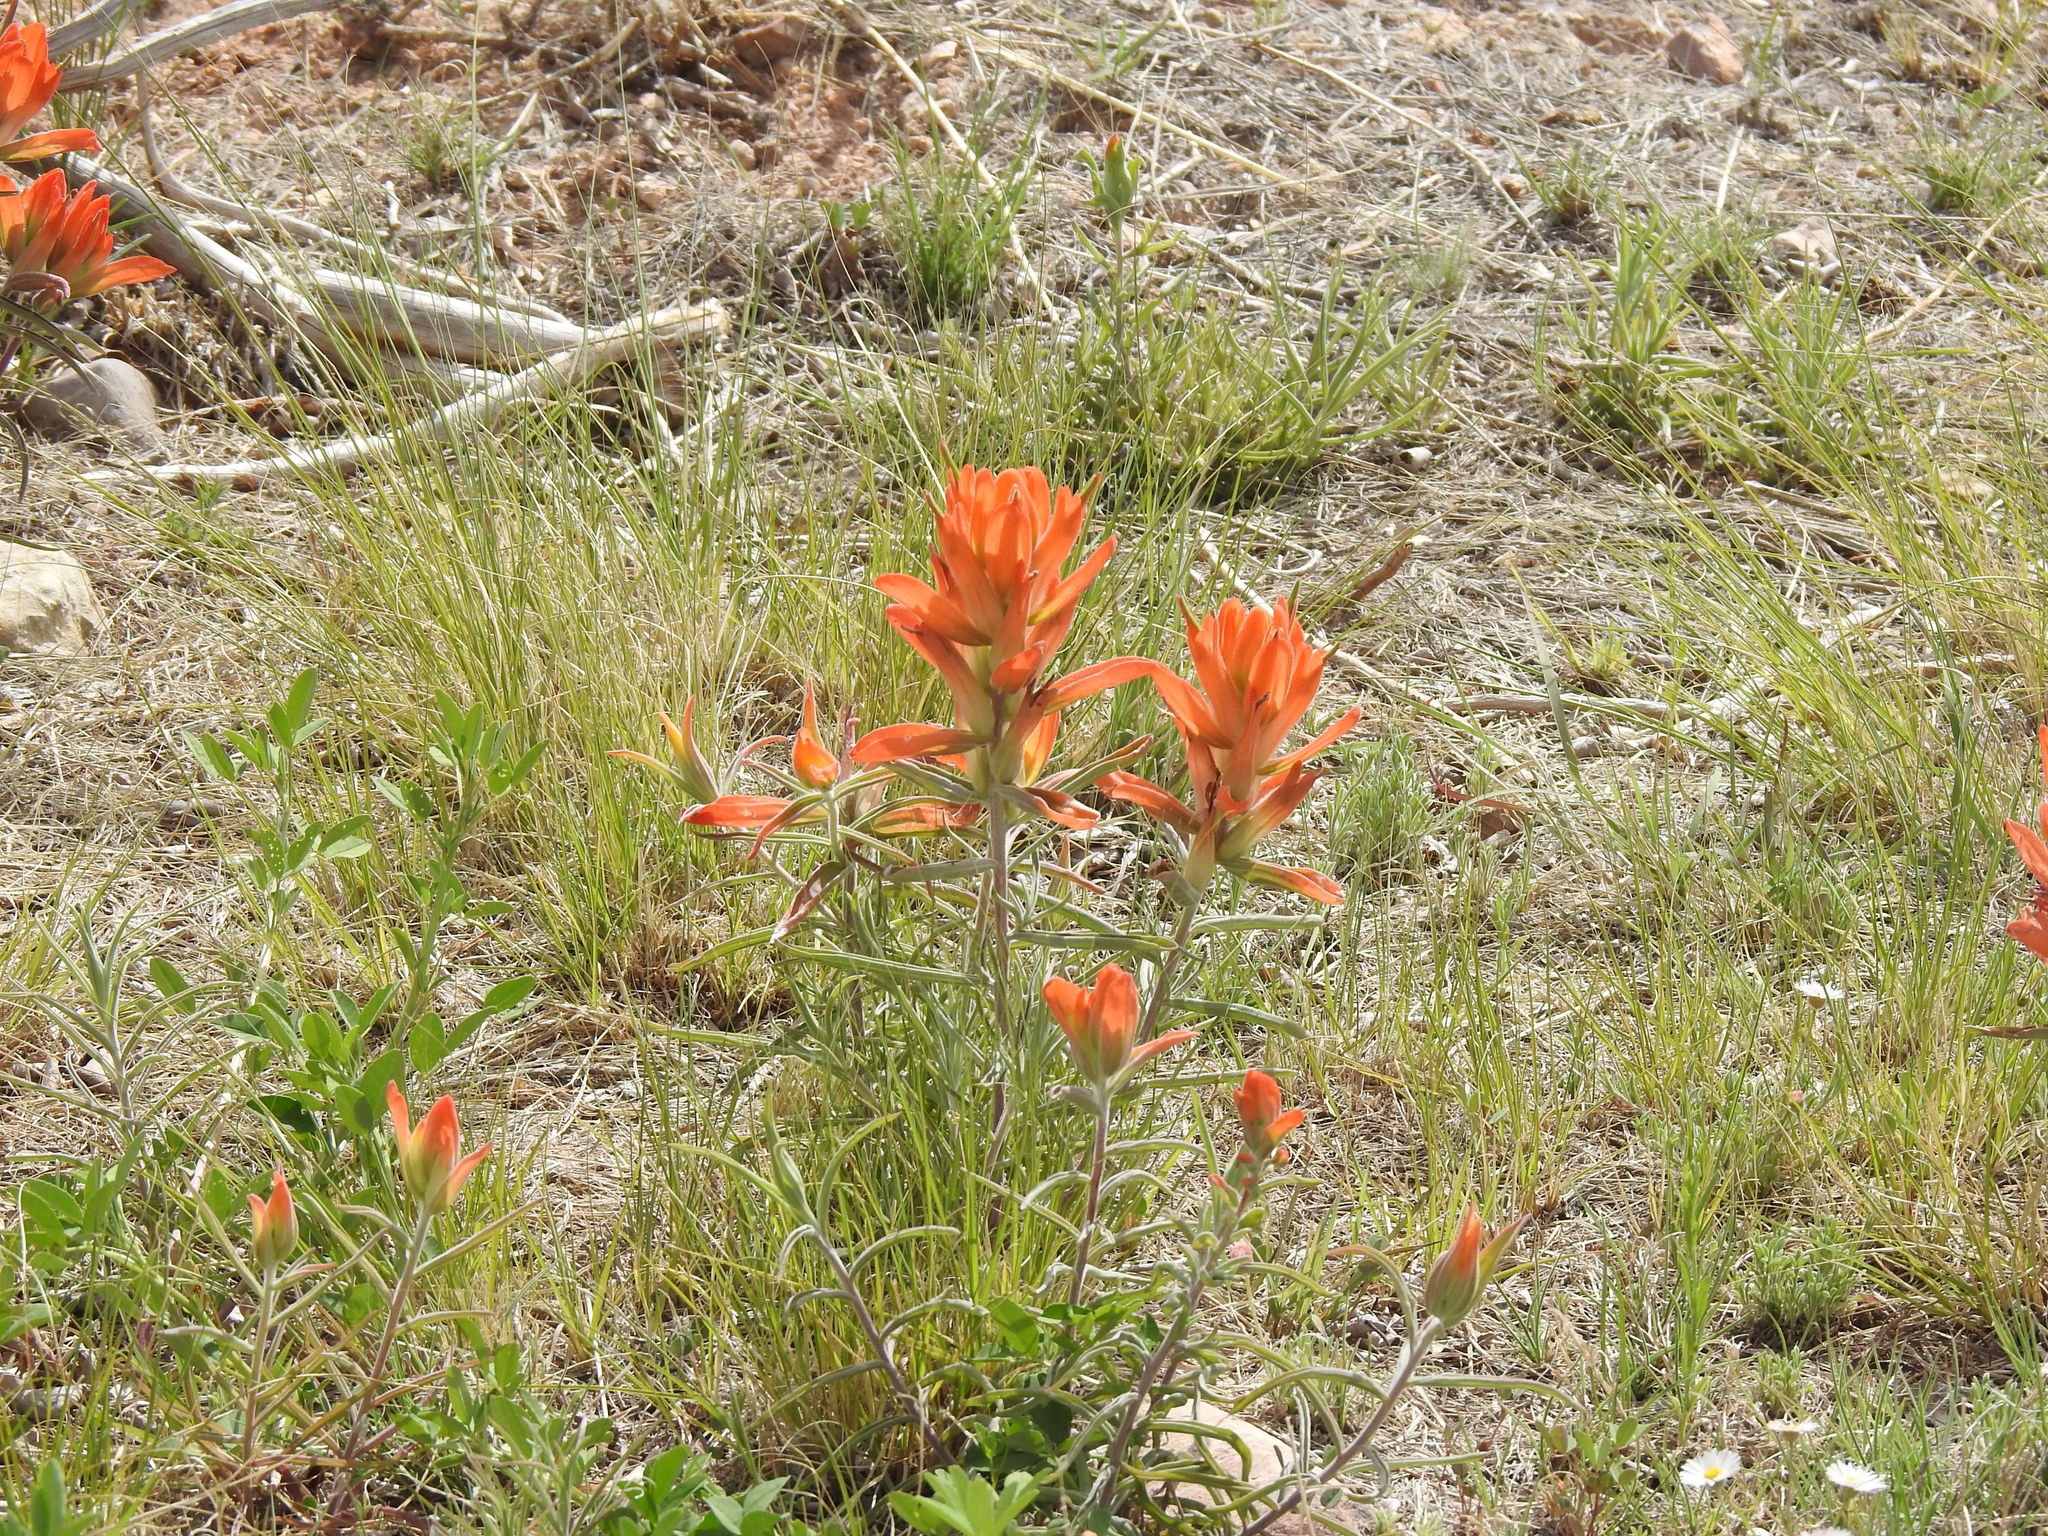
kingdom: Plantae
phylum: Tracheophyta
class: Magnoliopsida
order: Lamiales
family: Orobanchaceae
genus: Castilleja
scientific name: Castilleja integra
